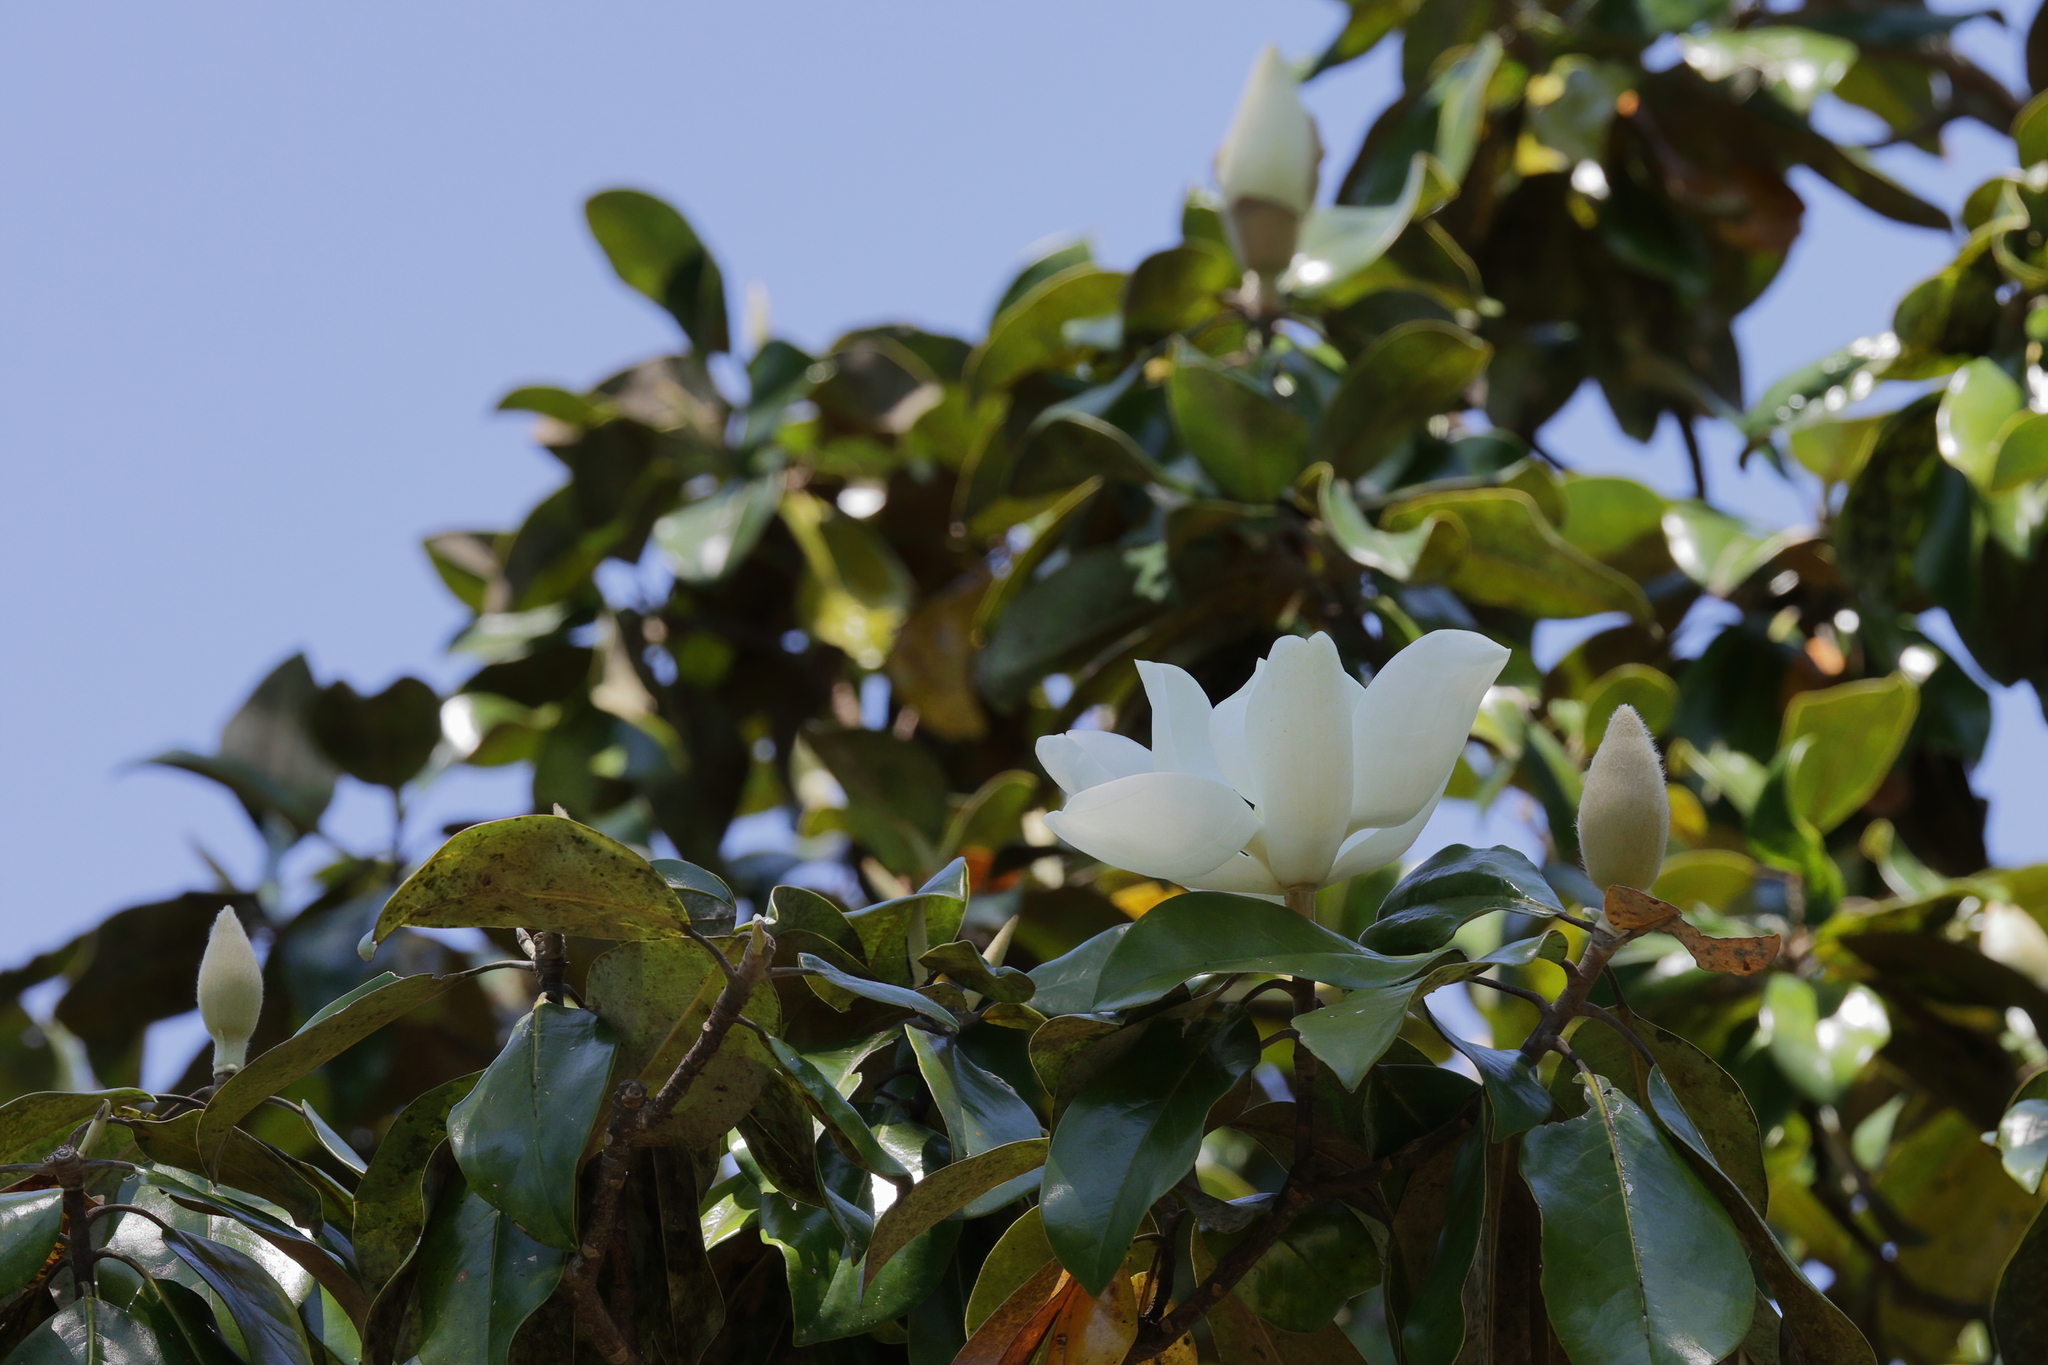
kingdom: Plantae
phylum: Tracheophyta
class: Magnoliopsida
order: Magnoliales
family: Magnoliaceae
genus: Magnolia
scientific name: Magnolia grandiflora
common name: Southern magnolia
